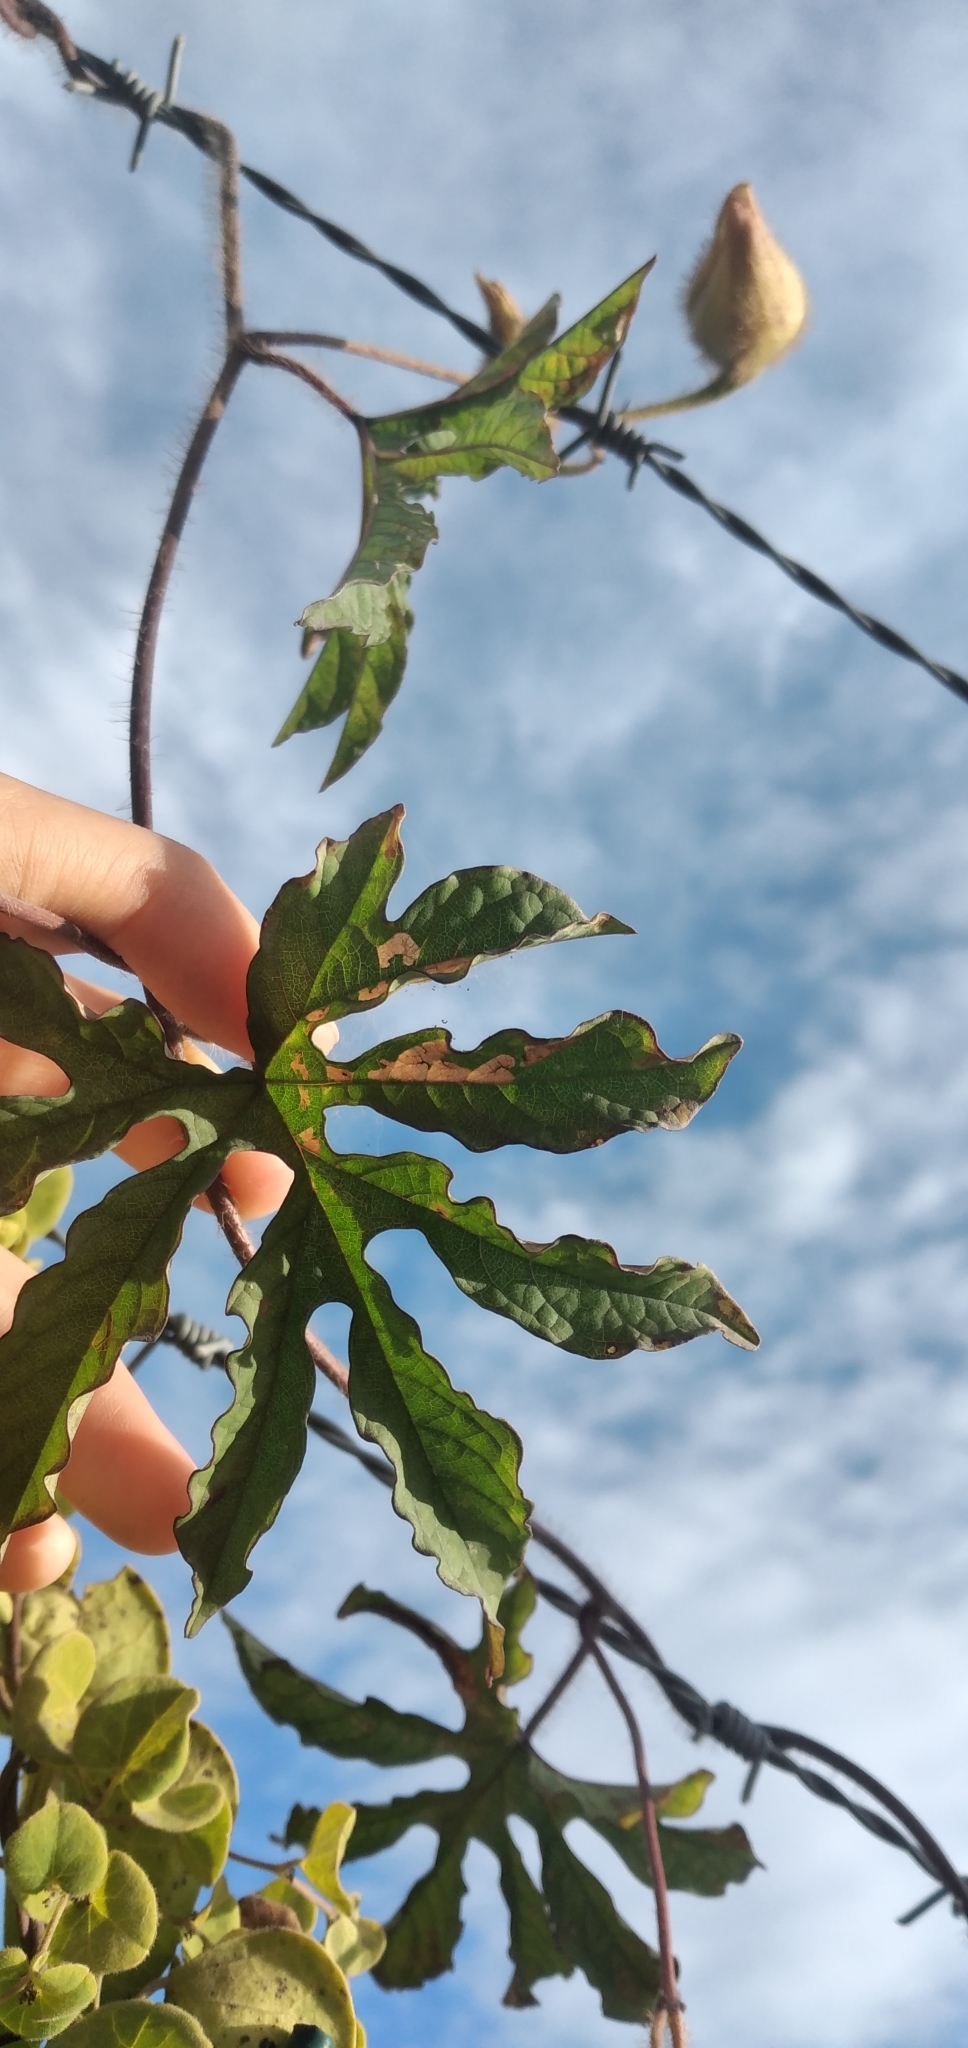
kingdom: Plantae
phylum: Tracheophyta
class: Magnoliopsida
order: Solanales
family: Convolvulaceae
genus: Distimake
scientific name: Distimake dissectus
